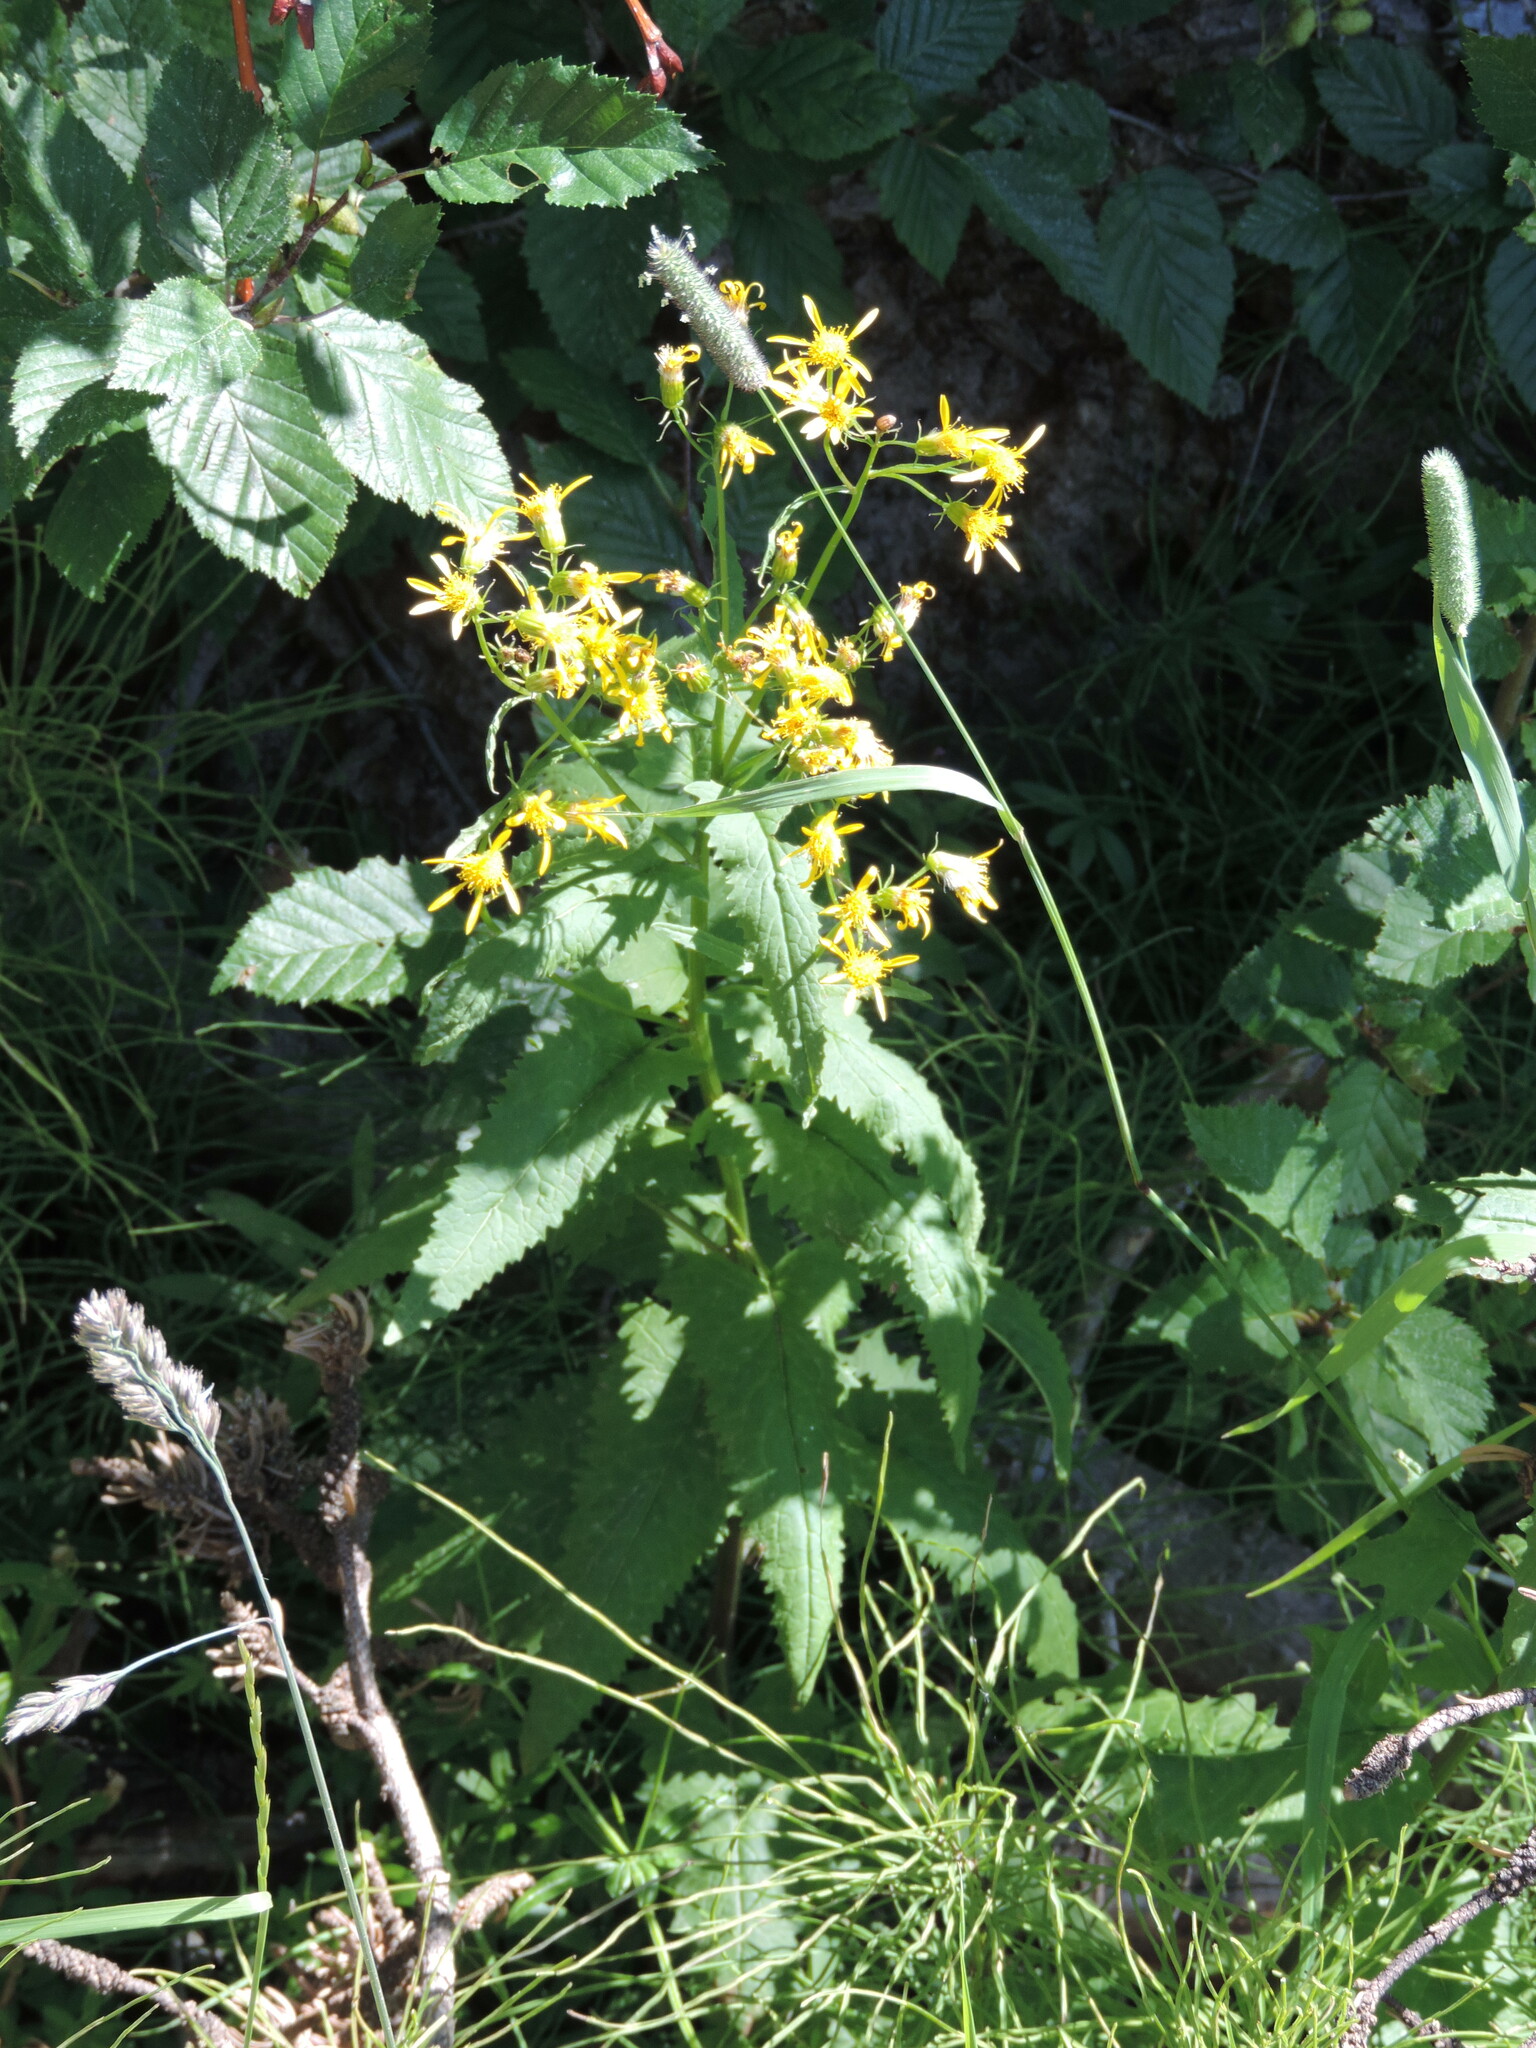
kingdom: Plantae
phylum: Tracheophyta
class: Magnoliopsida
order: Asterales
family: Asteraceae
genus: Senecio
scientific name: Senecio triangularis
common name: Arrowleaf butterweed
